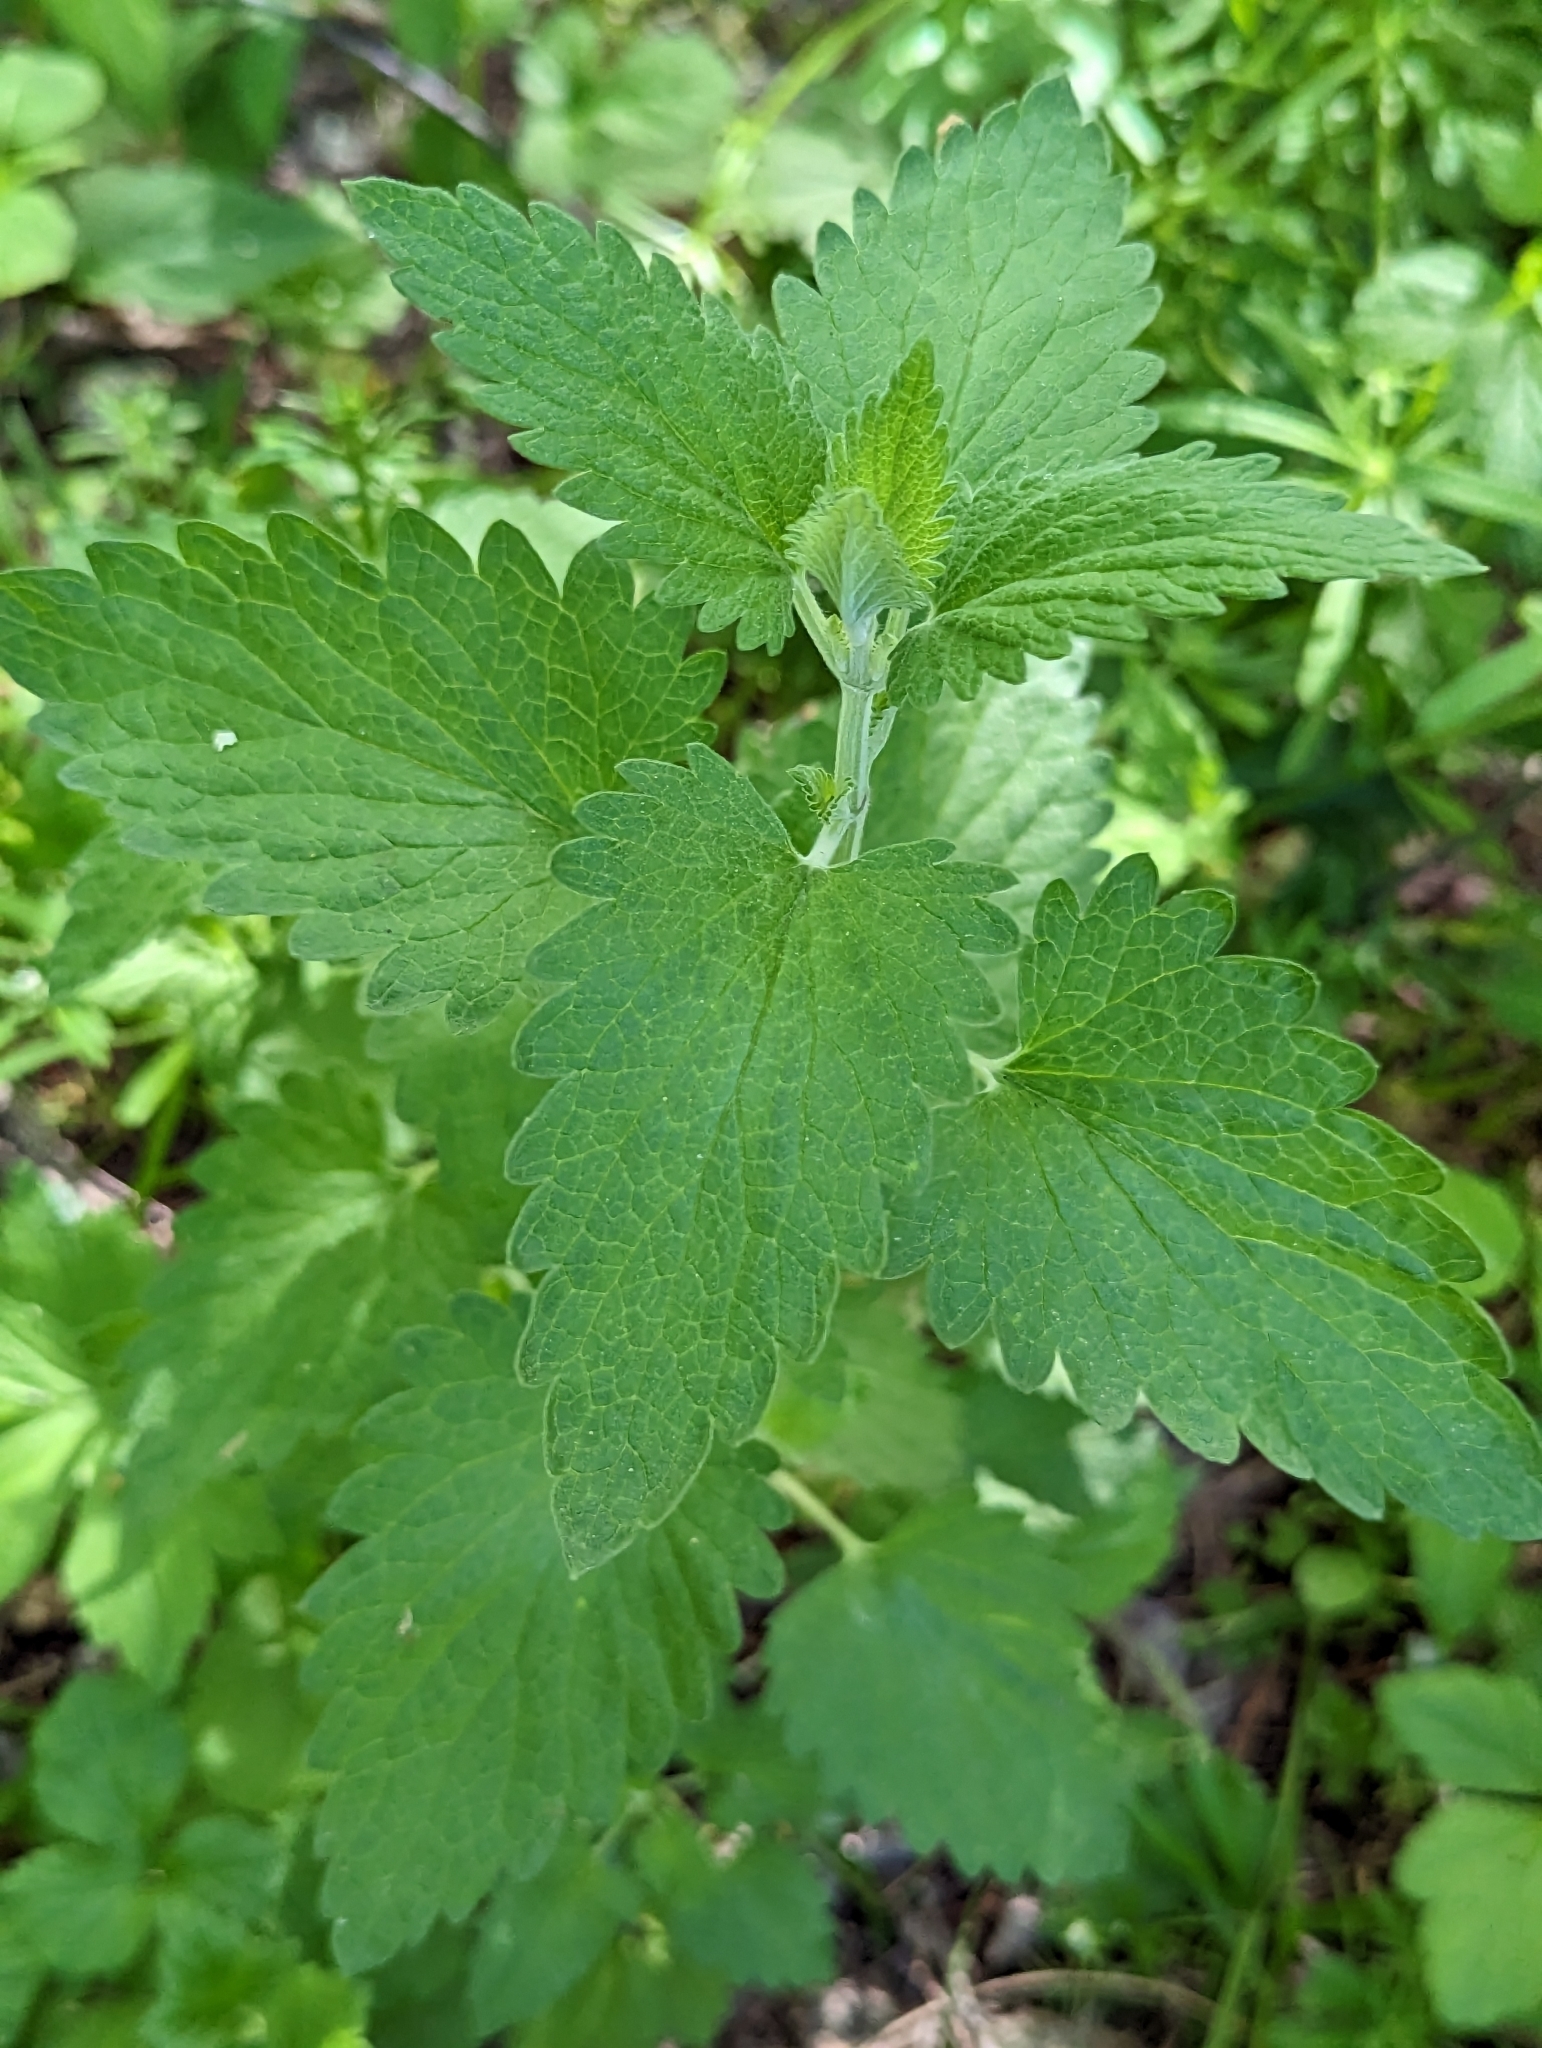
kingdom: Plantae
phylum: Tracheophyta
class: Magnoliopsida
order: Lamiales
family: Lamiaceae
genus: Nepeta
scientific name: Nepeta cataria
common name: Catnip
